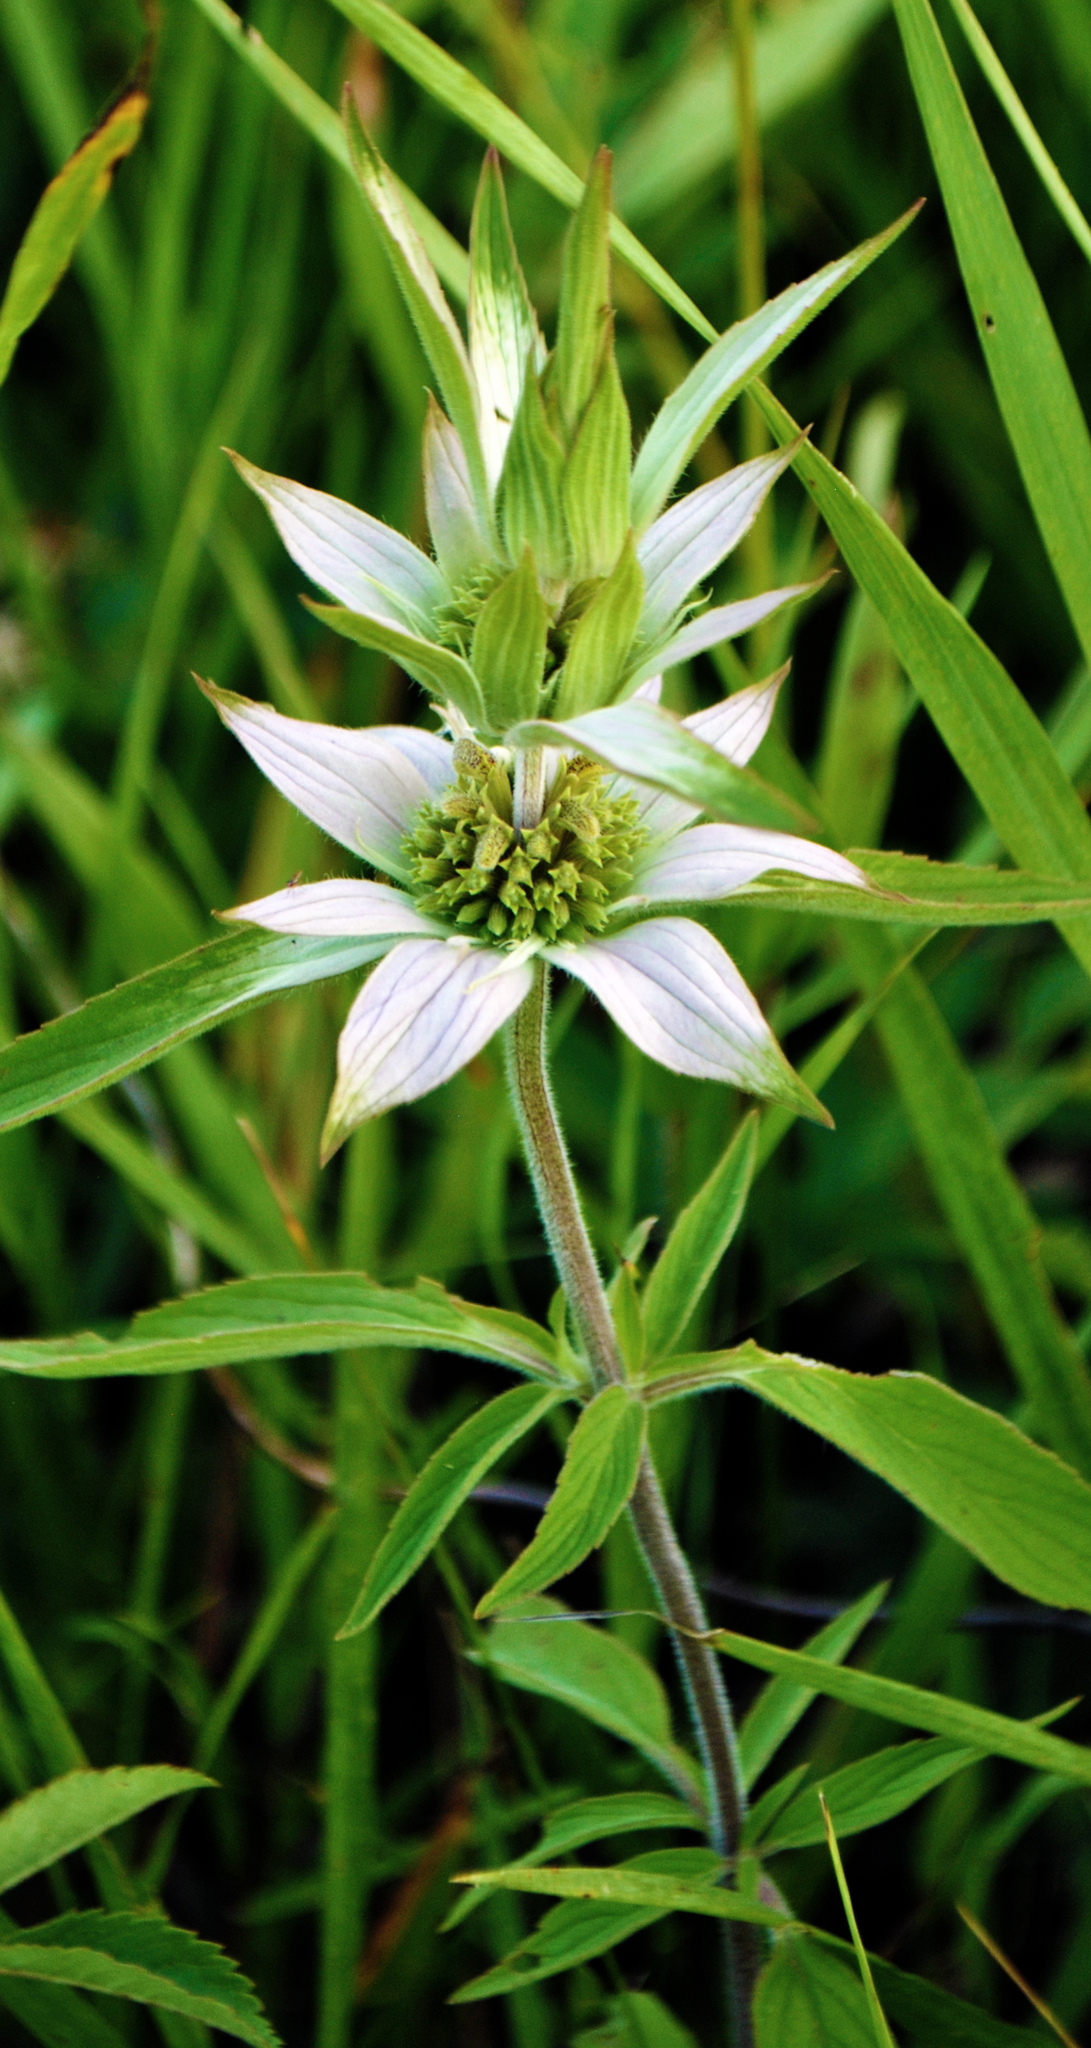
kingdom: Plantae
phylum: Tracheophyta
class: Magnoliopsida
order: Lamiales
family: Lamiaceae
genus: Monarda
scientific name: Monarda punctata
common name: Dotted monarda
